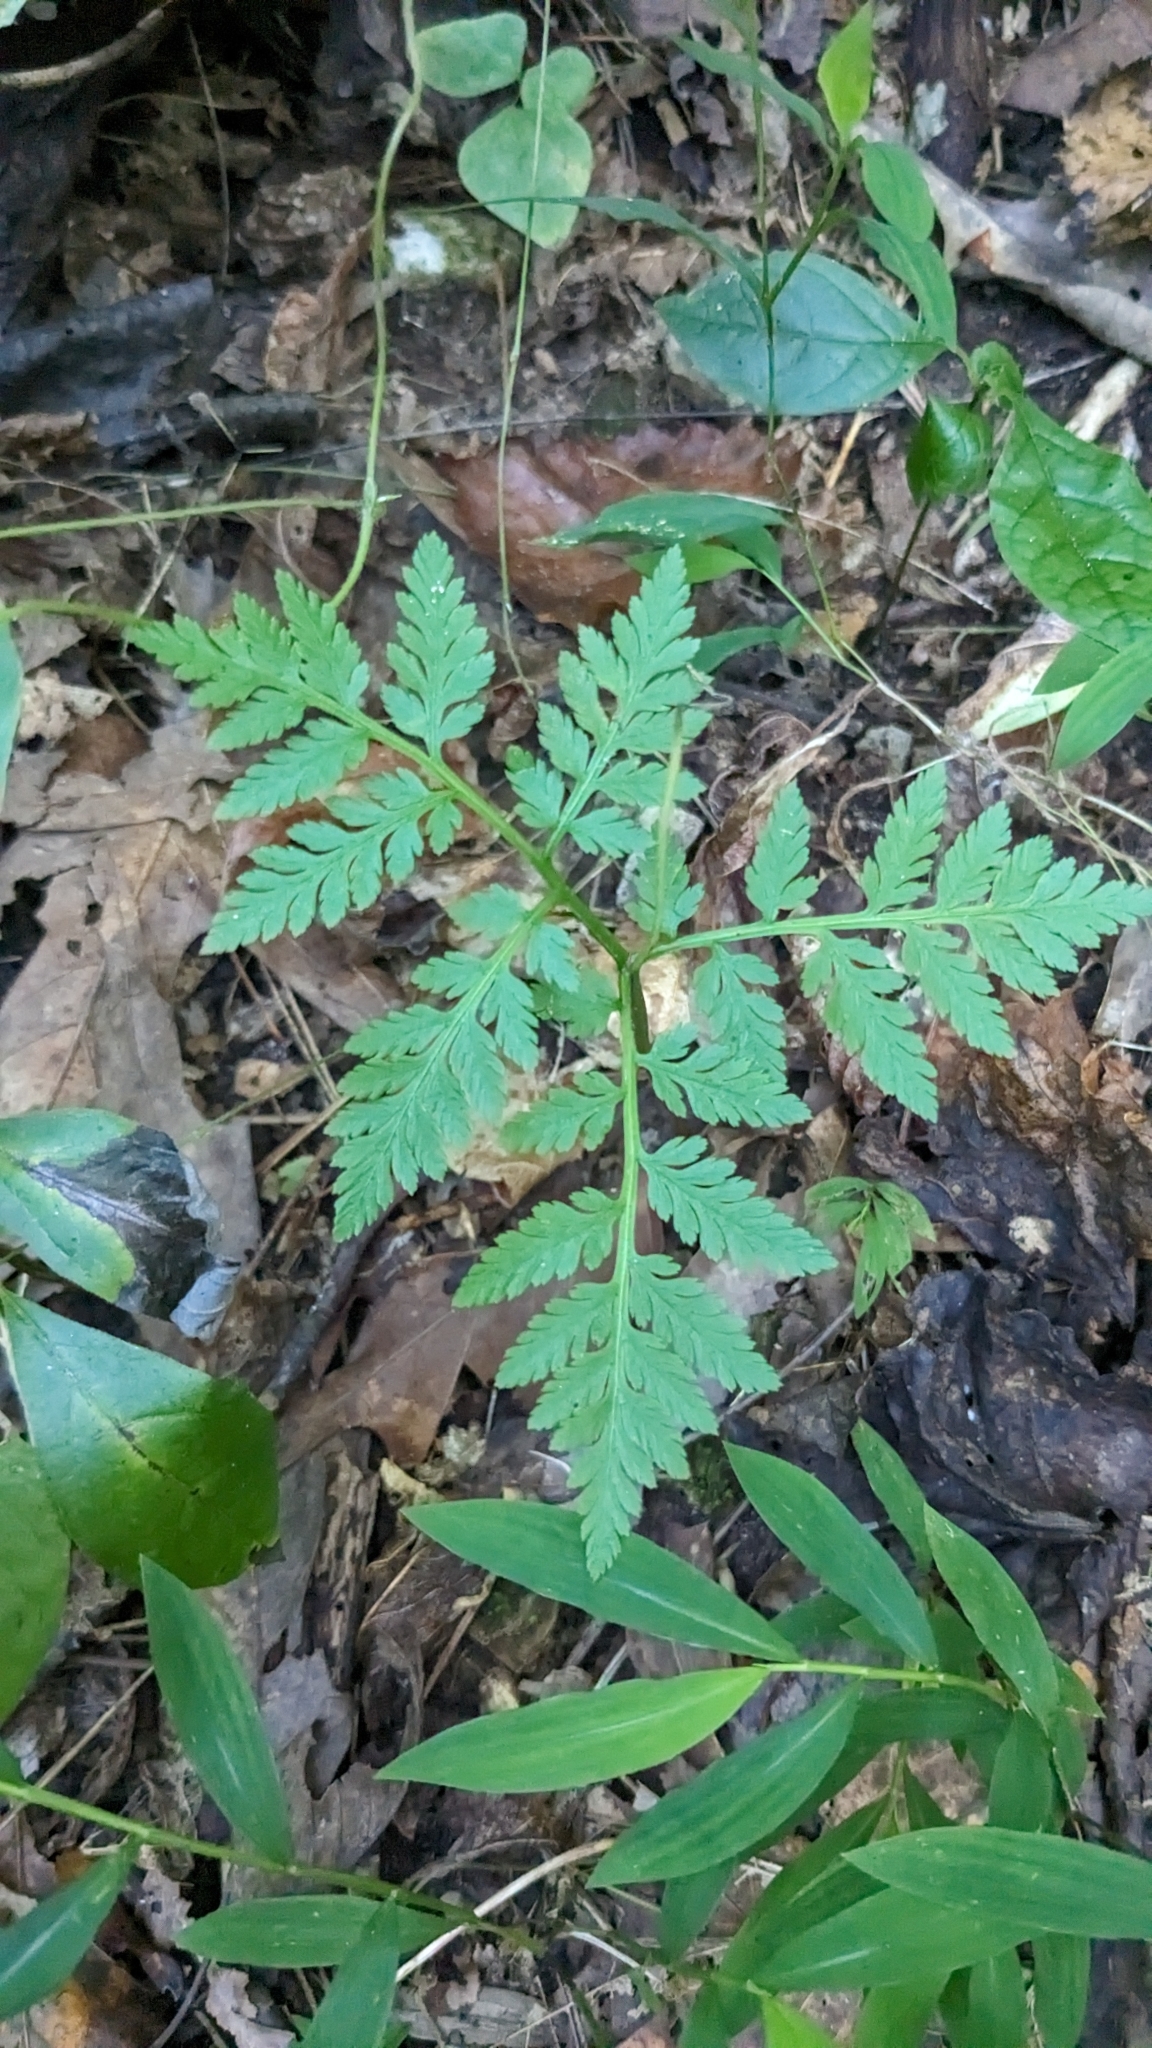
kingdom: Plantae
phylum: Tracheophyta
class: Polypodiopsida
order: Ophioglossales
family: Ophioglossaceae
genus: Botrypus
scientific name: Botrypus virginianus
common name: Common grapefern
